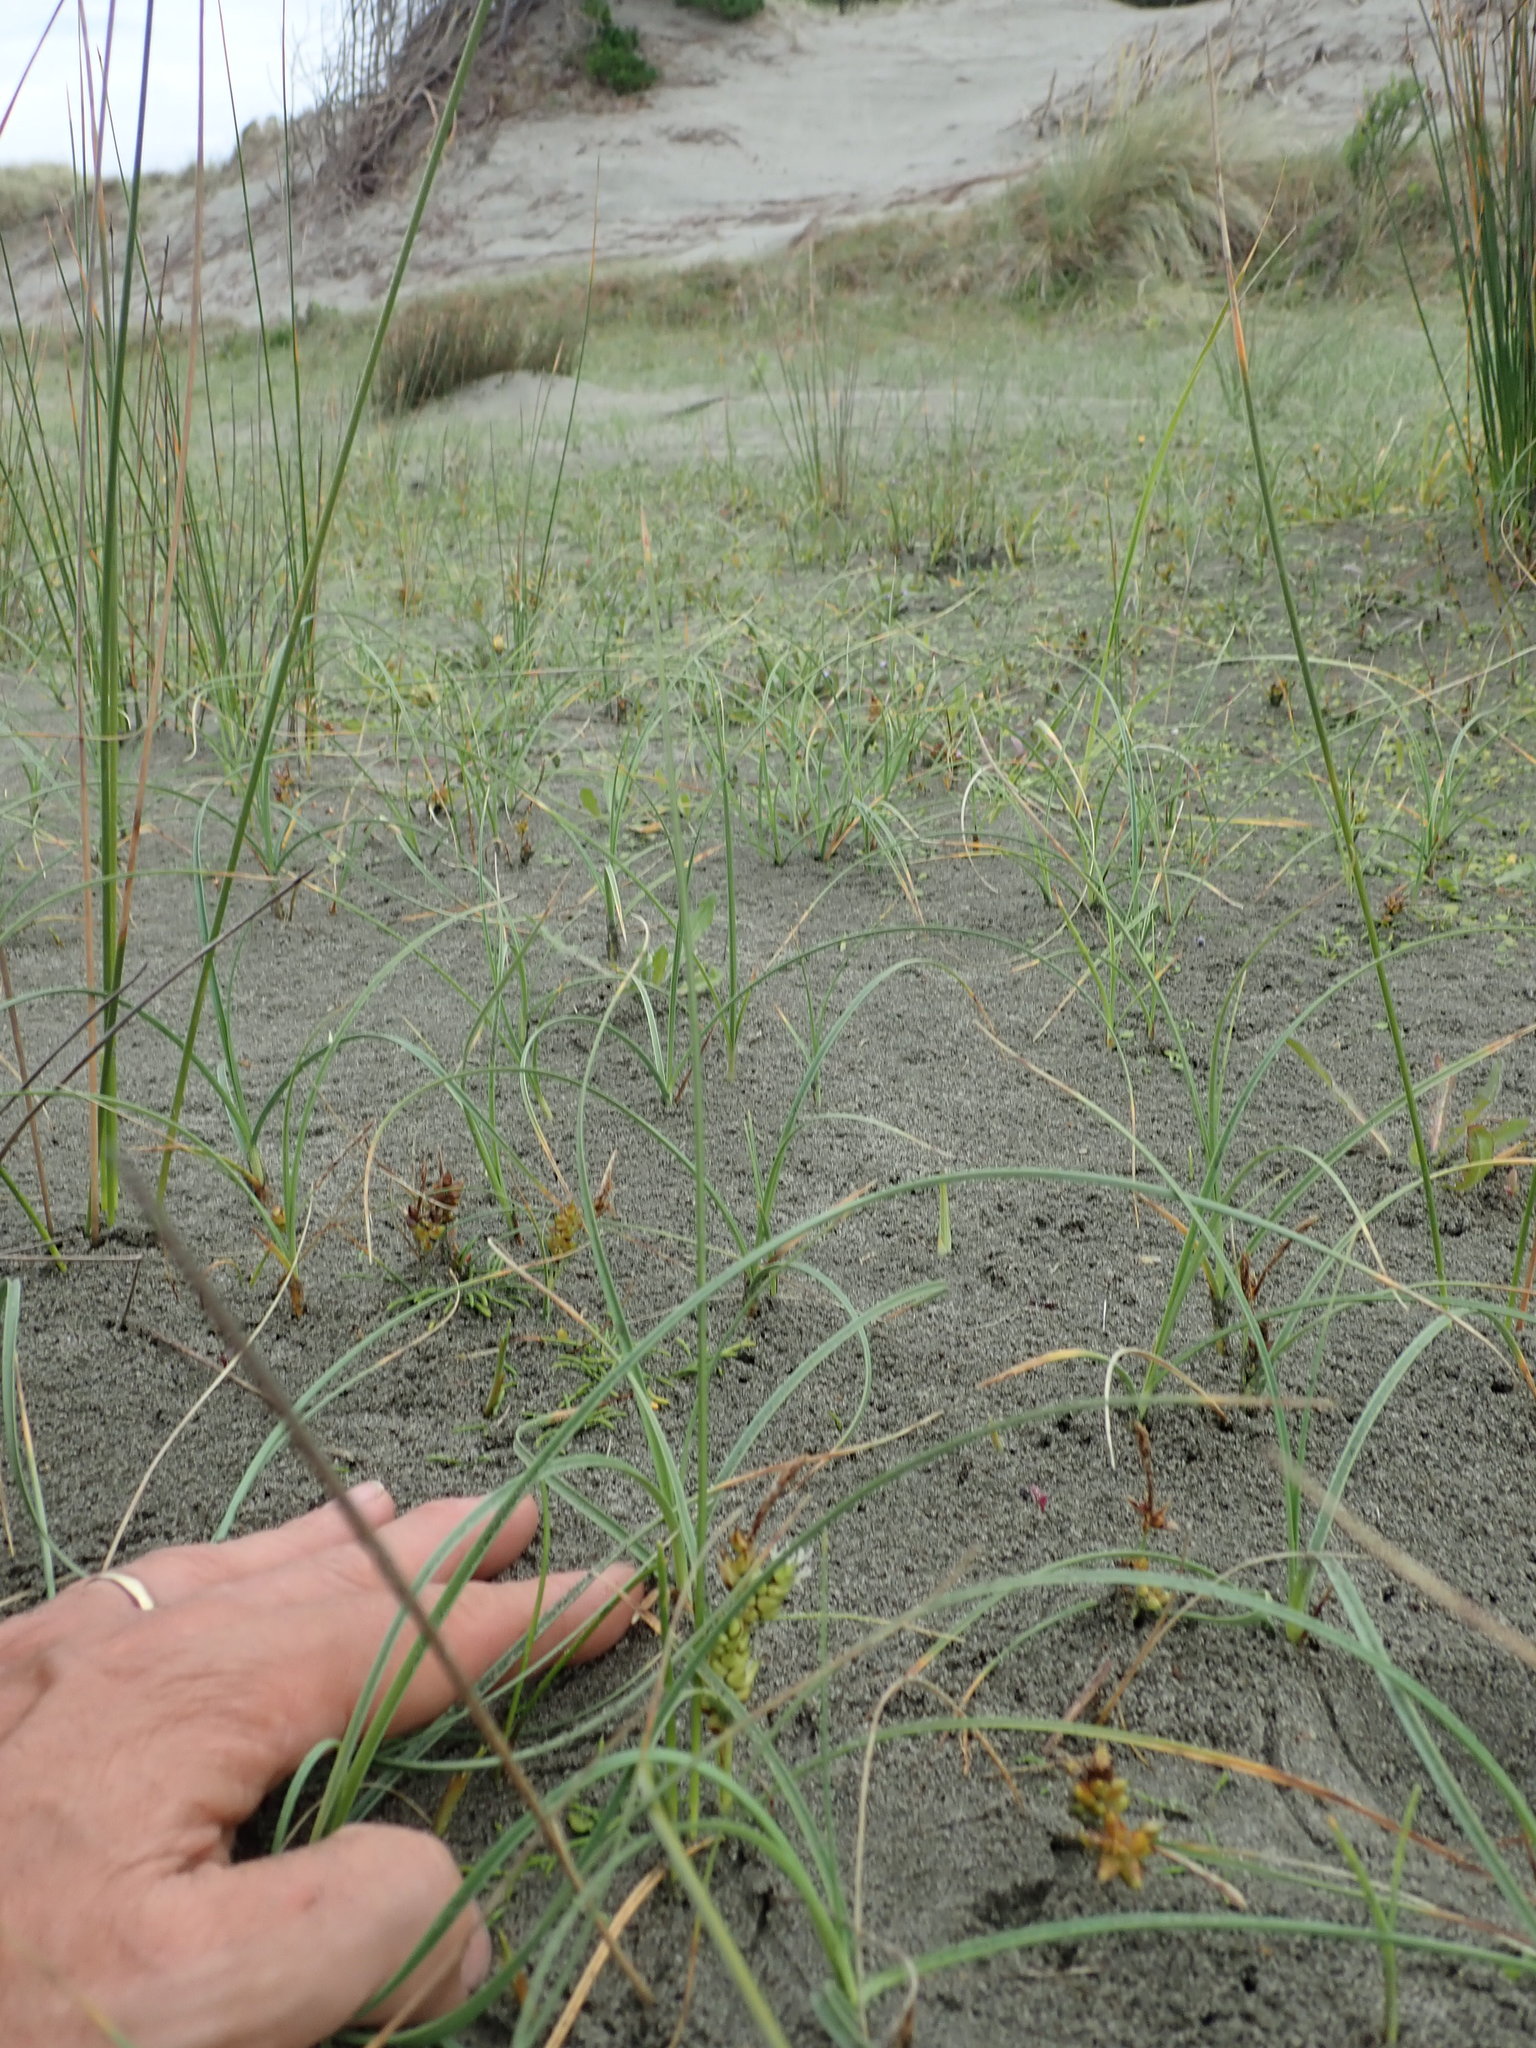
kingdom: Plantae
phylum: Tracheophyta
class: Liliopsida
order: Poales
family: Cyperaceae
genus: Carex
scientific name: Carex pumila
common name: Dwarf sedge
